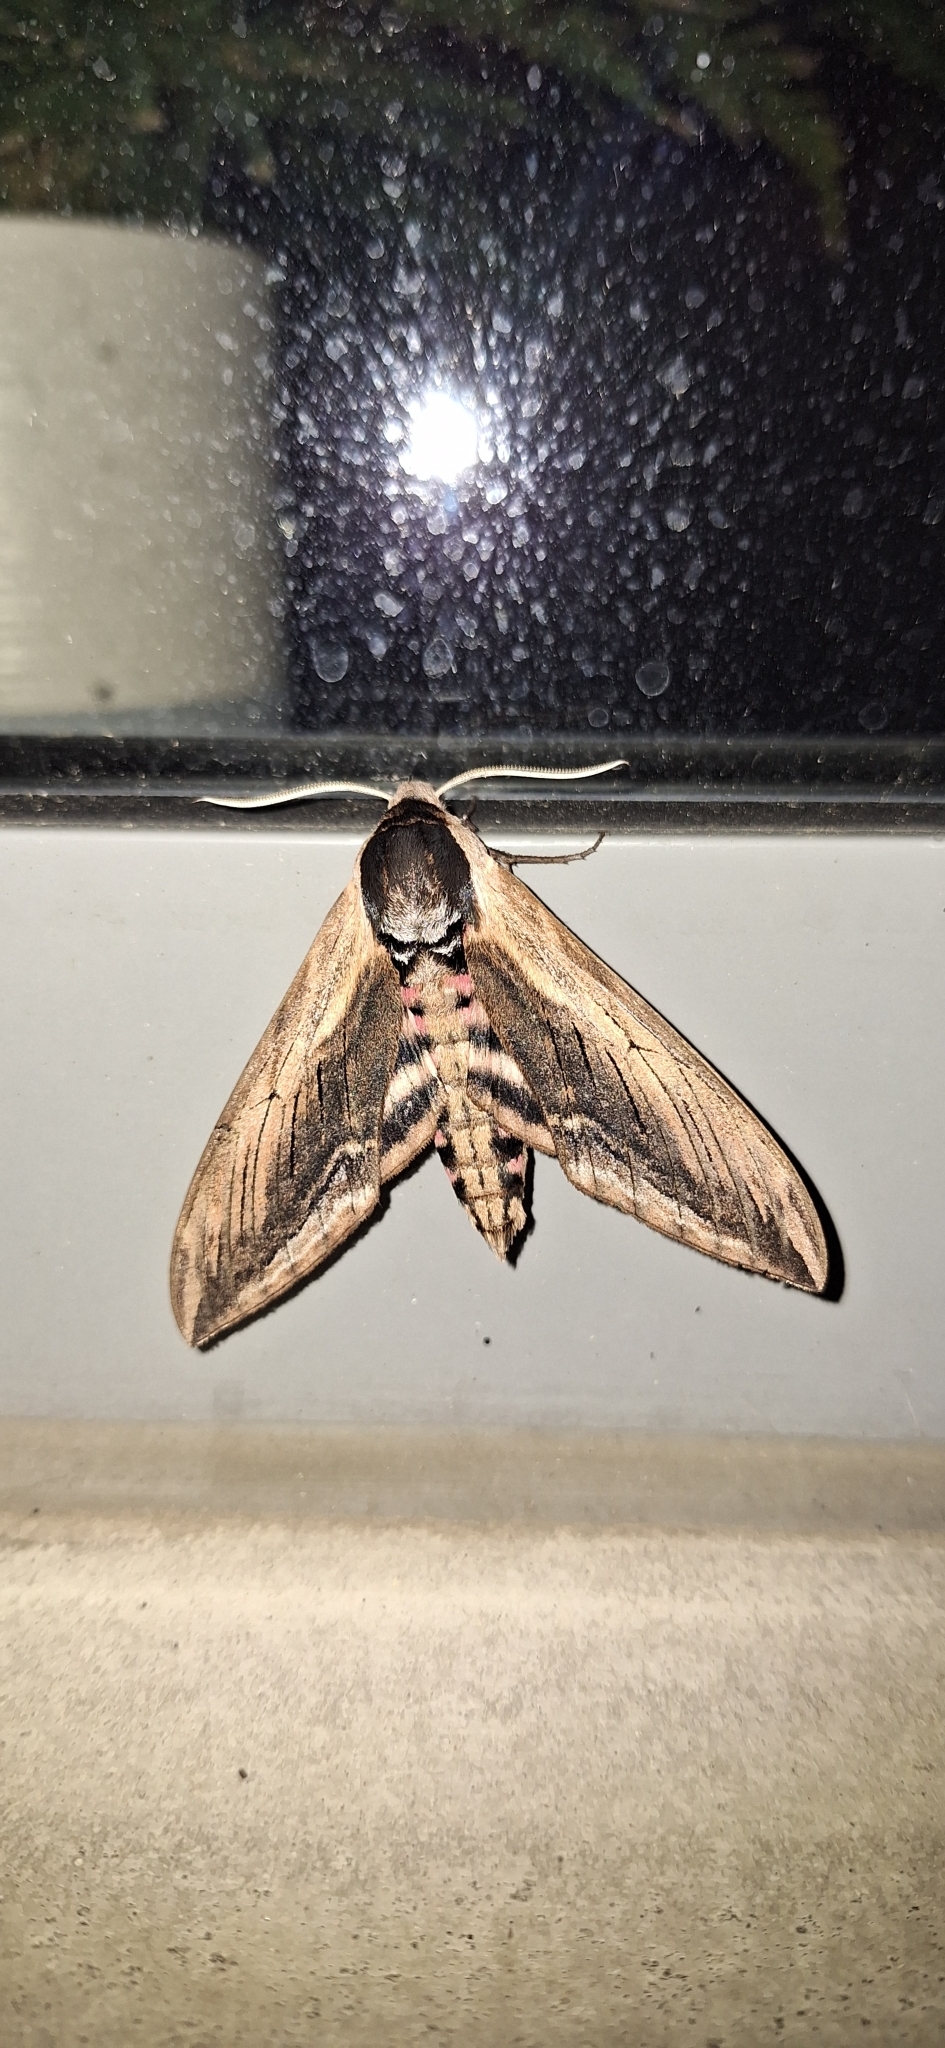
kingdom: Animalia
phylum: Arthropoda
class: Insecta
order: Lepidoptera
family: Sphingidae
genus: Sphinx
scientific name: Sphinx ligustri
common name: Privet hawk-moth
